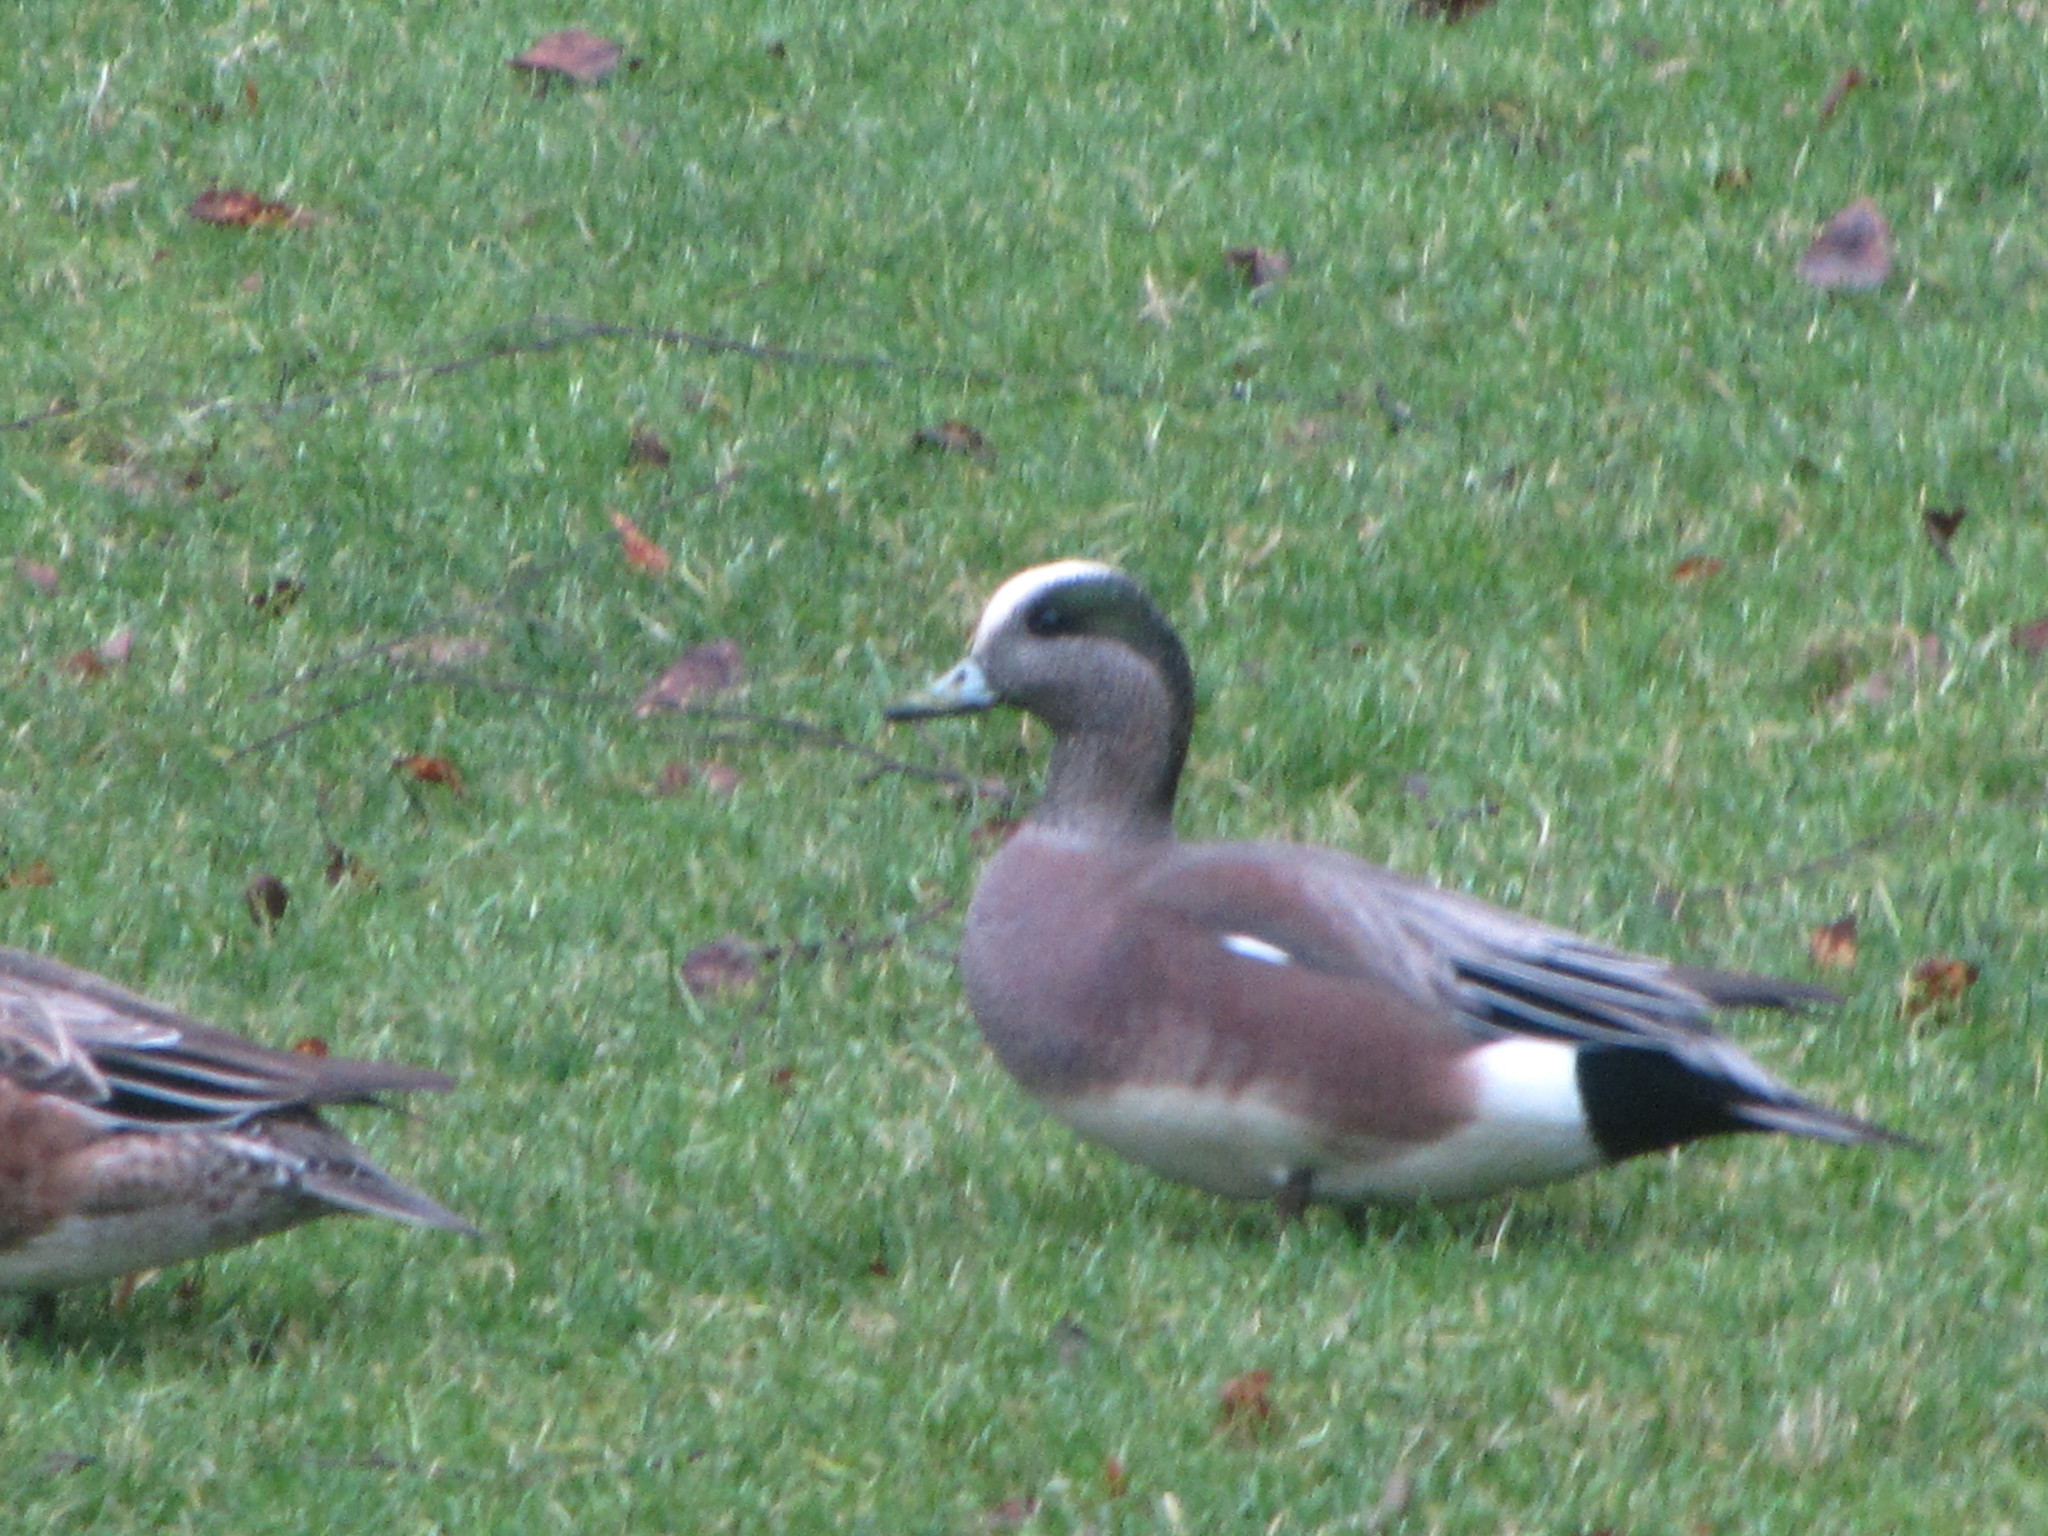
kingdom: Animalia
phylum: Chordata
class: Aves
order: Anseriformes
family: Anatidae
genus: Mareca
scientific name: Mareca americana
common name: American wigeon
